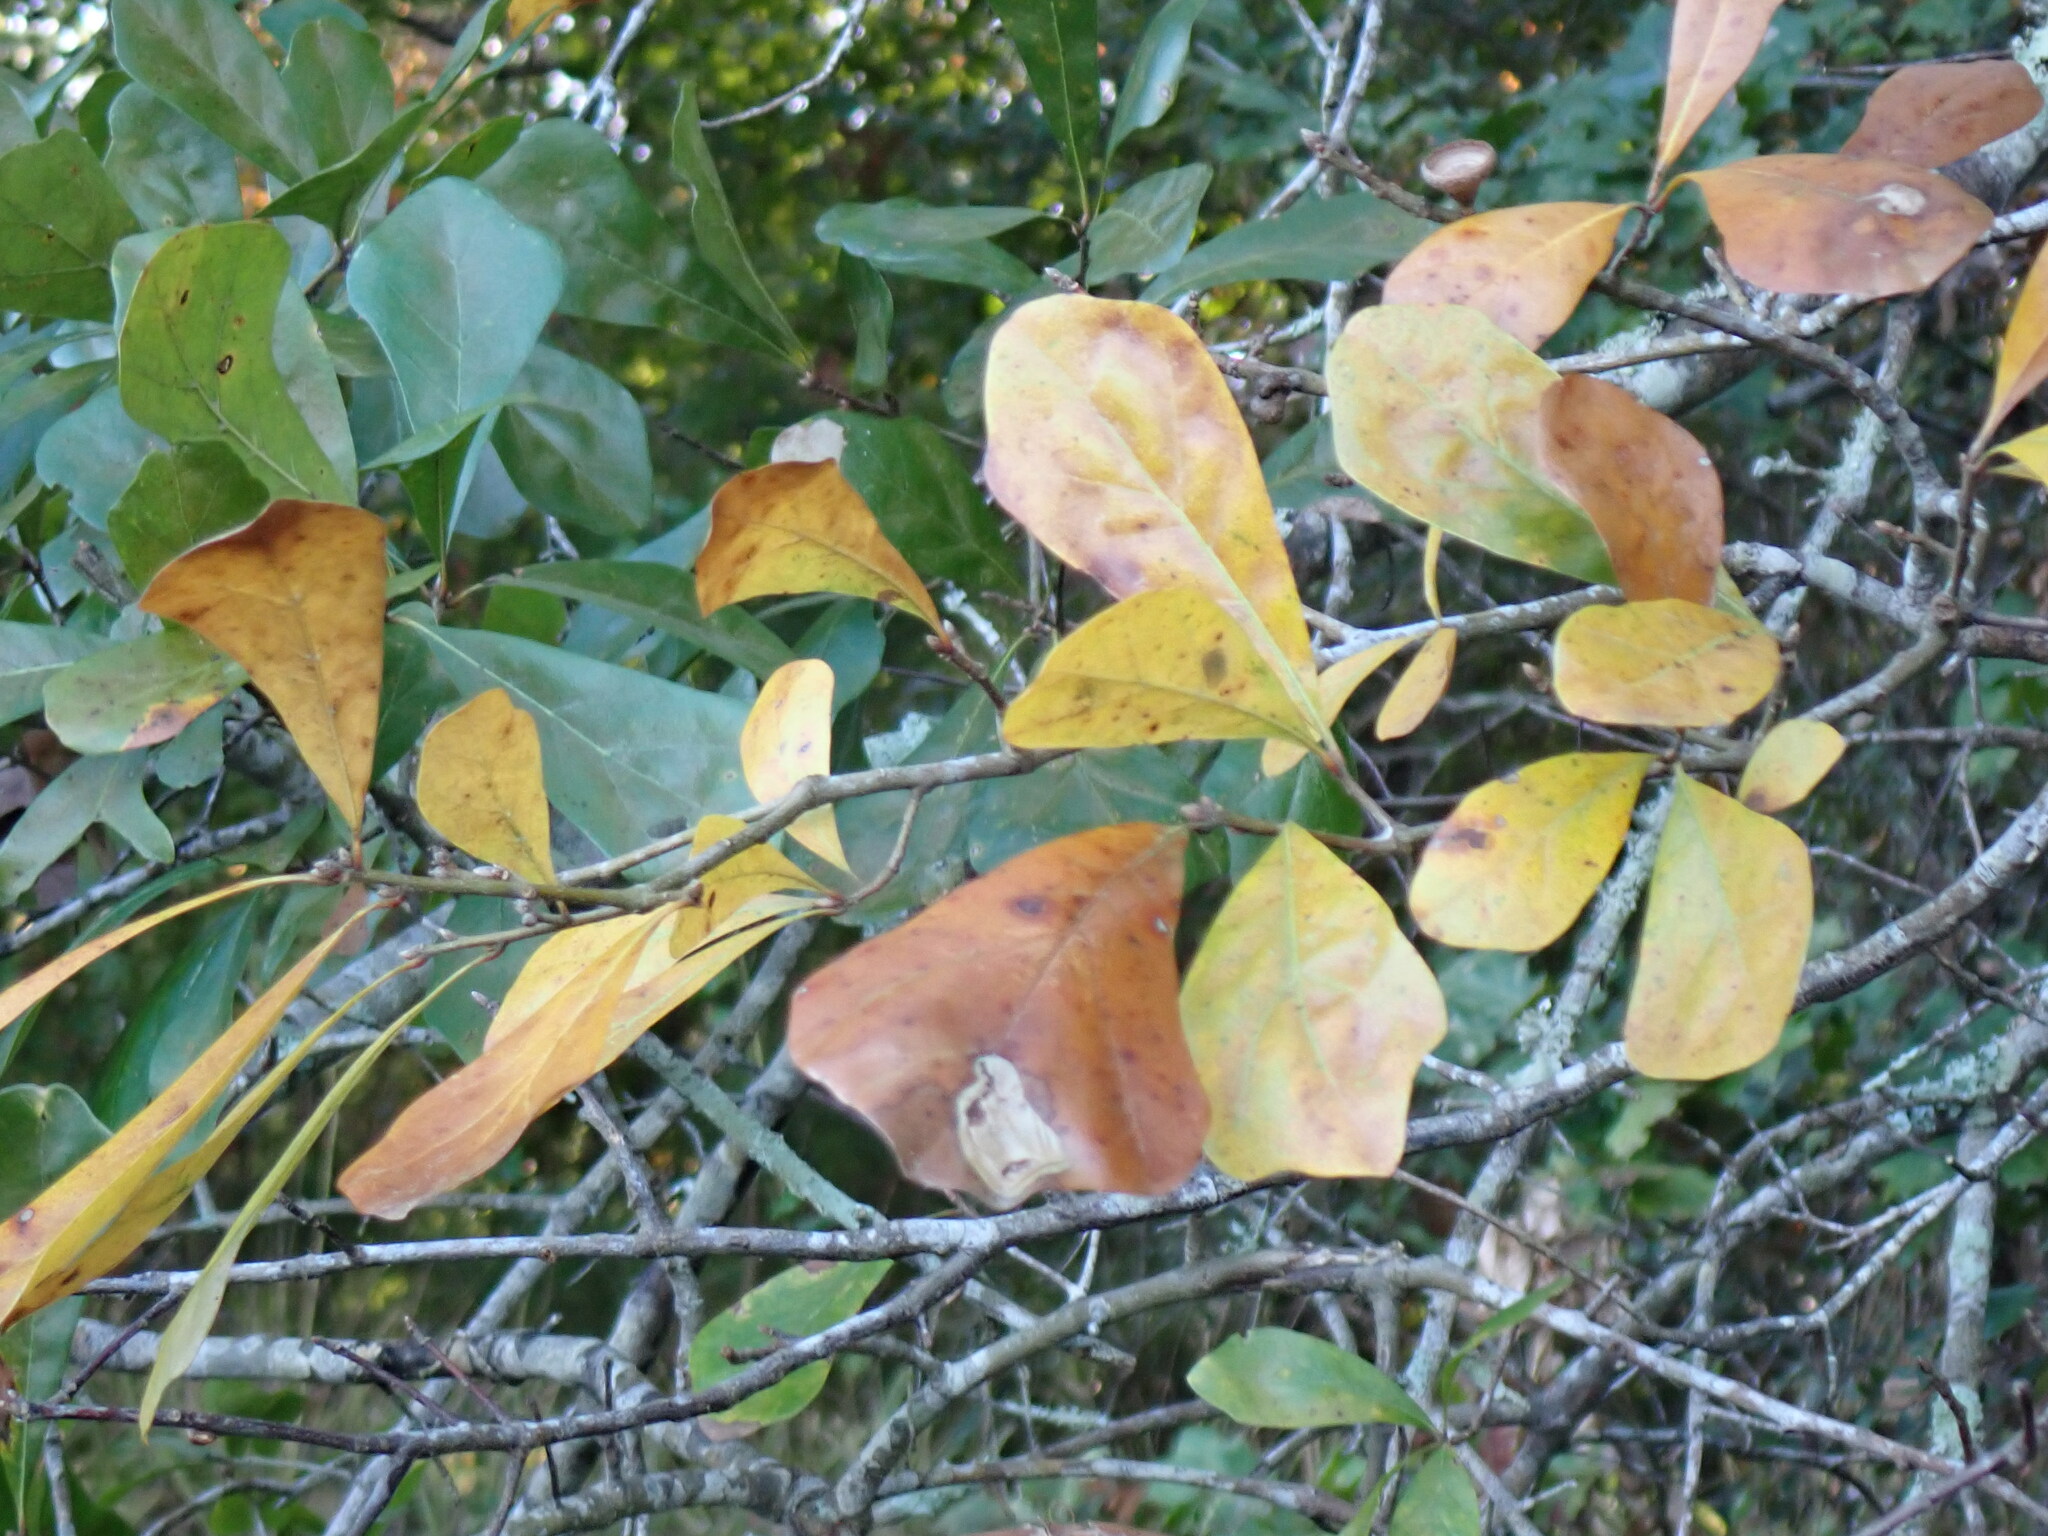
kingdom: Plantae
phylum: Tracheophyta
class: Magnoliopsida
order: Fagales
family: Fagaceae
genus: Quercus
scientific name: Quercus nigra
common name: Water oak
